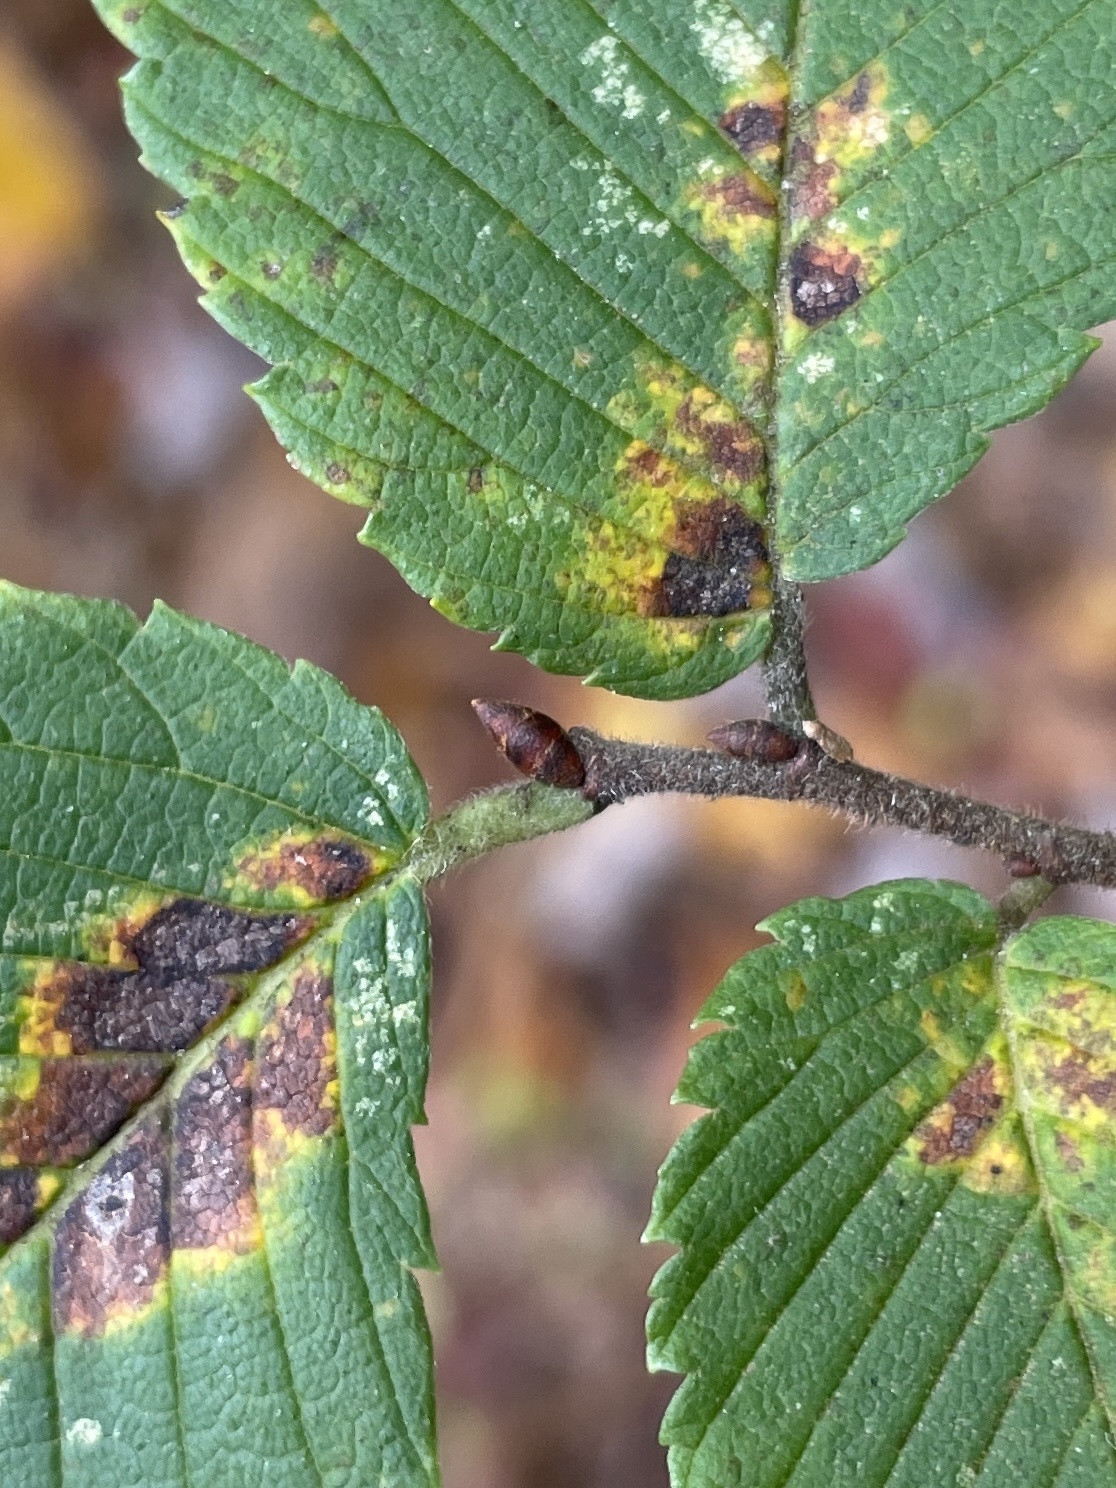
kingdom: Plantae
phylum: Tracheophyta
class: Magnoliopsida
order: Rosales
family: Ulmaceae
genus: Ulmus
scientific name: Ulmus americana
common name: American elm
